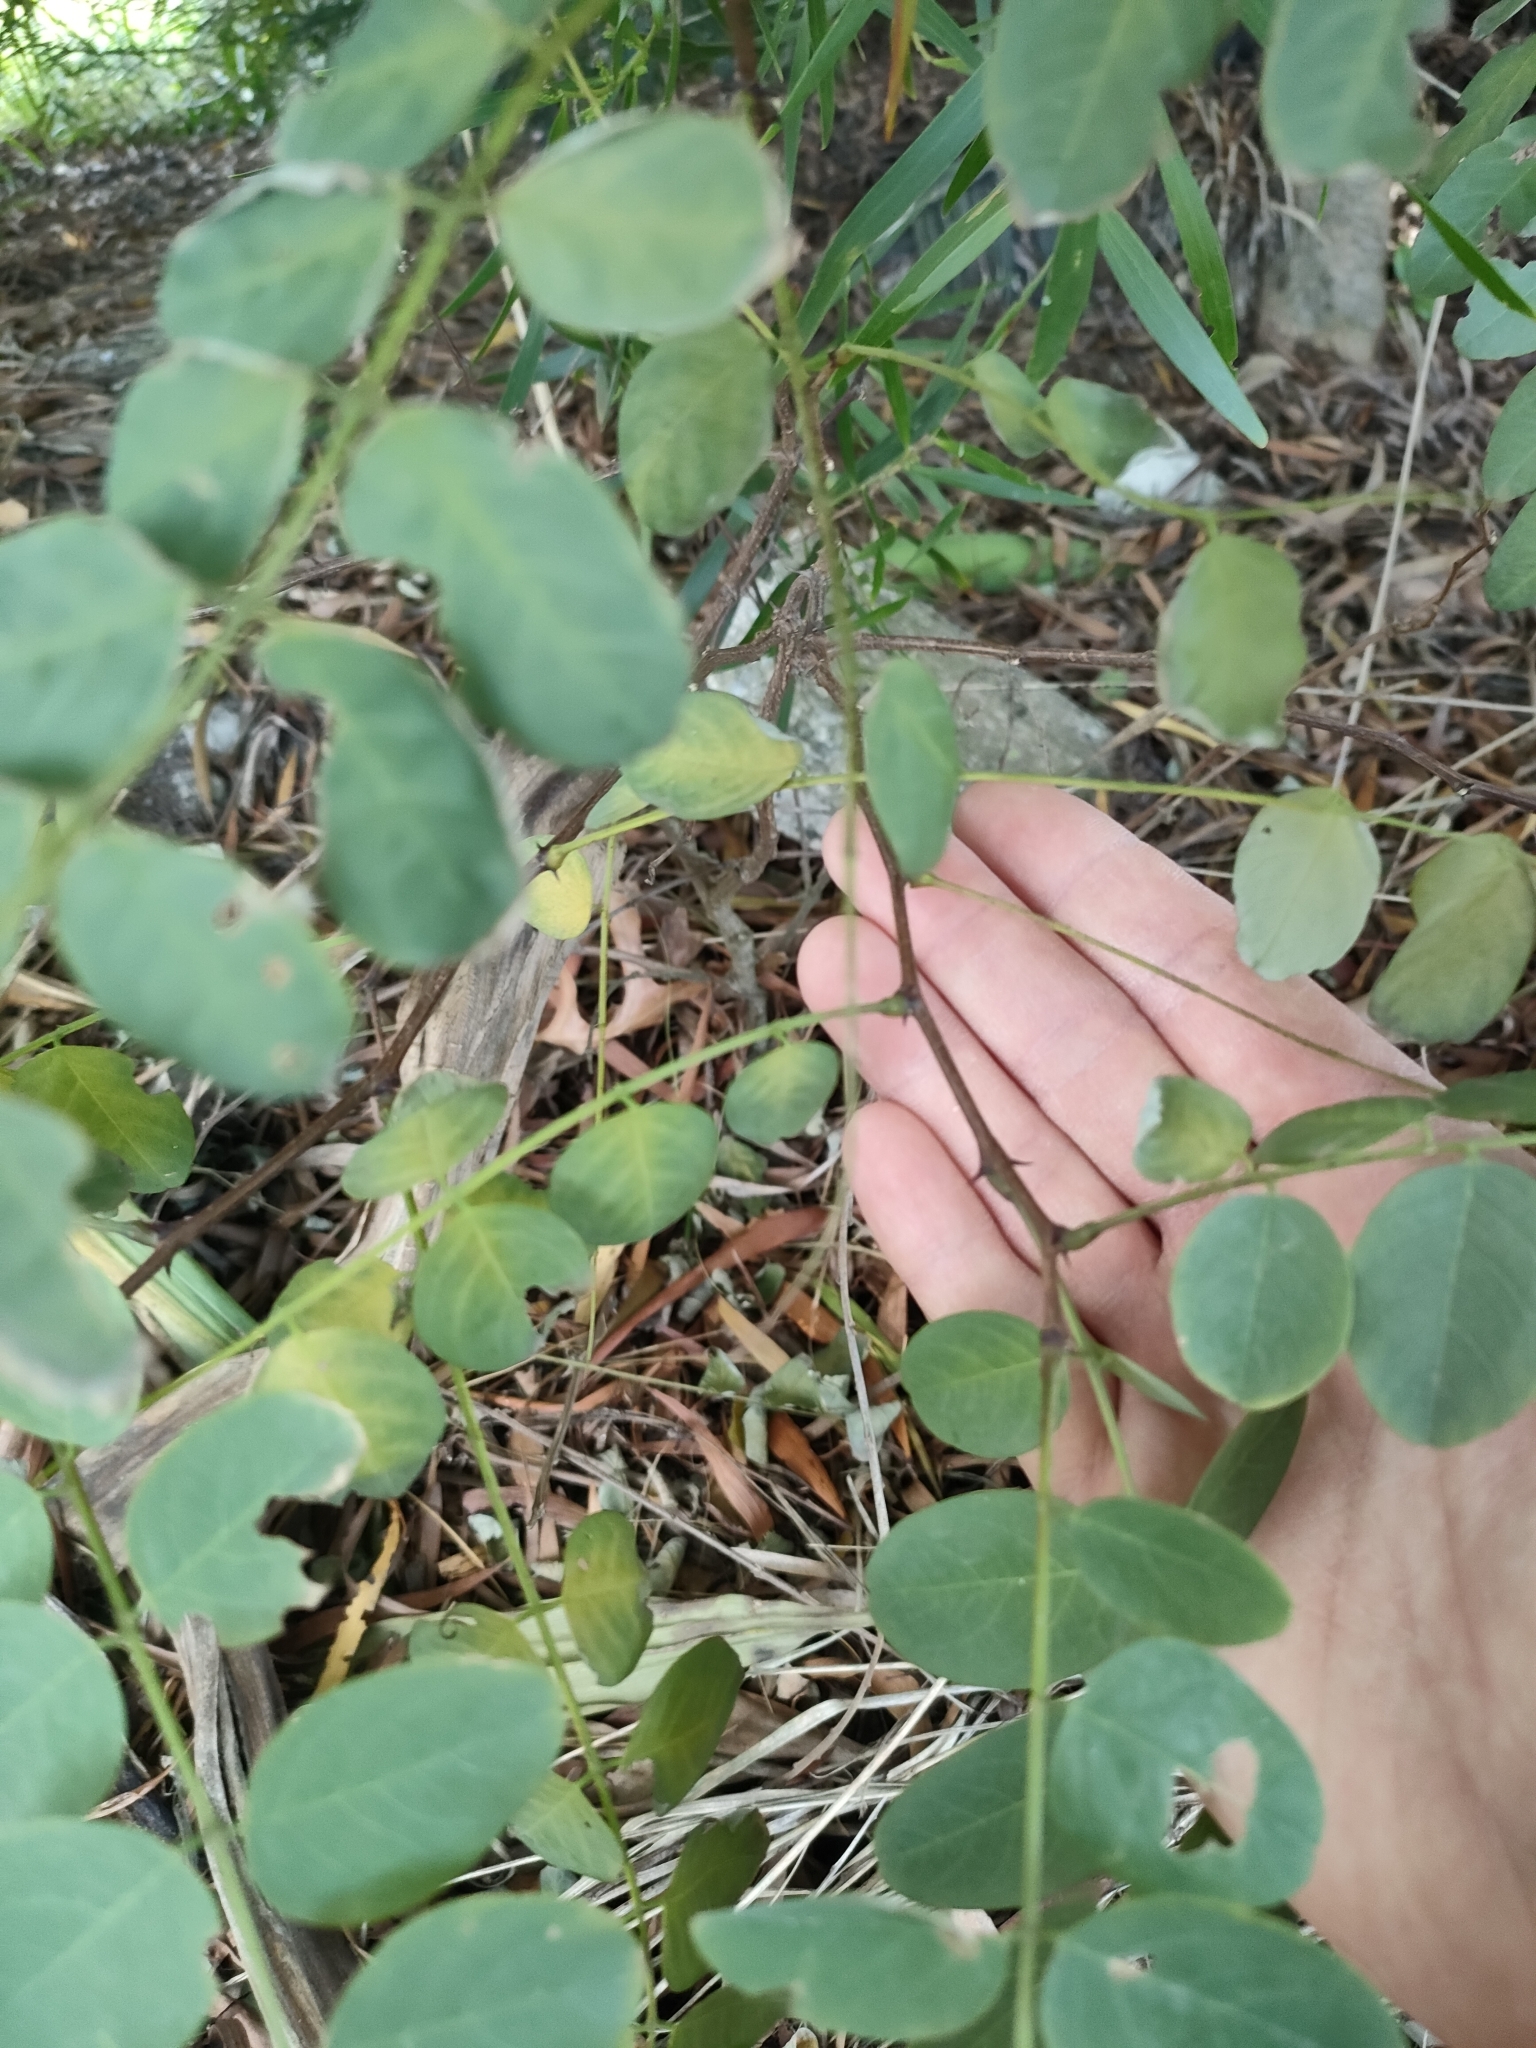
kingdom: Plantae
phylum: Tracheophyta
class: Magnoliopsida
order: Fabales
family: Fabaceae
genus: Robinia
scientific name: Robinia pseudoacacia
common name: Black locust
